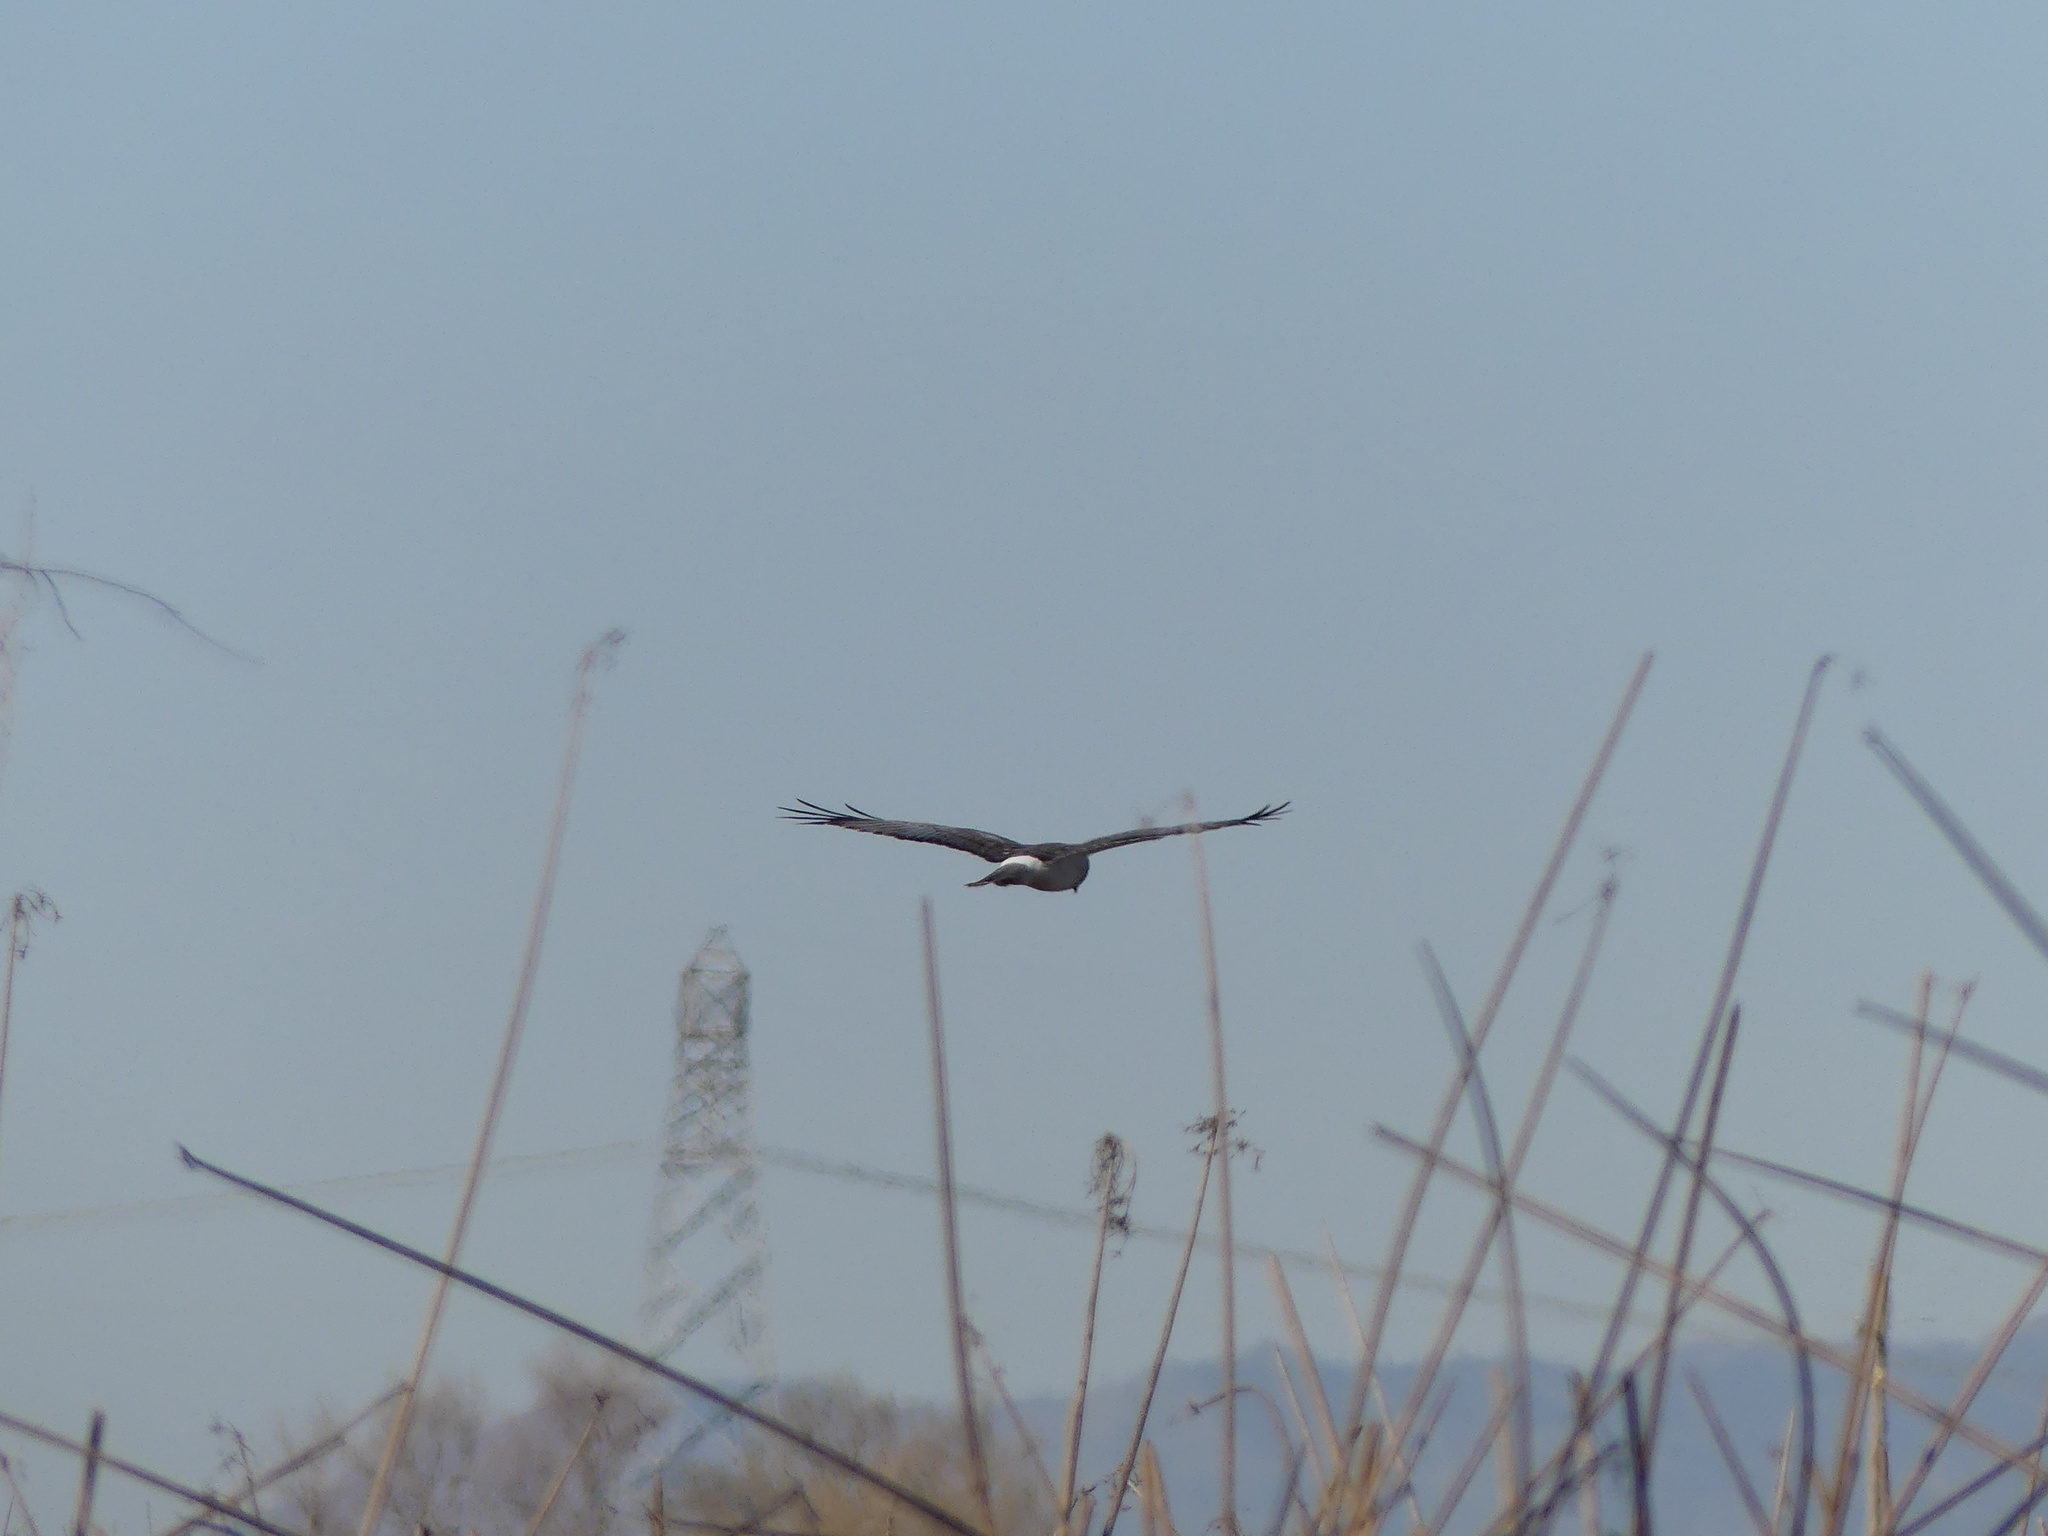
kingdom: Animalia
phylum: Chordata
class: Aves
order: Accipitriformes
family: Accipitridae
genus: Circus
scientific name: Circus cyaneus
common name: Hen harrier
